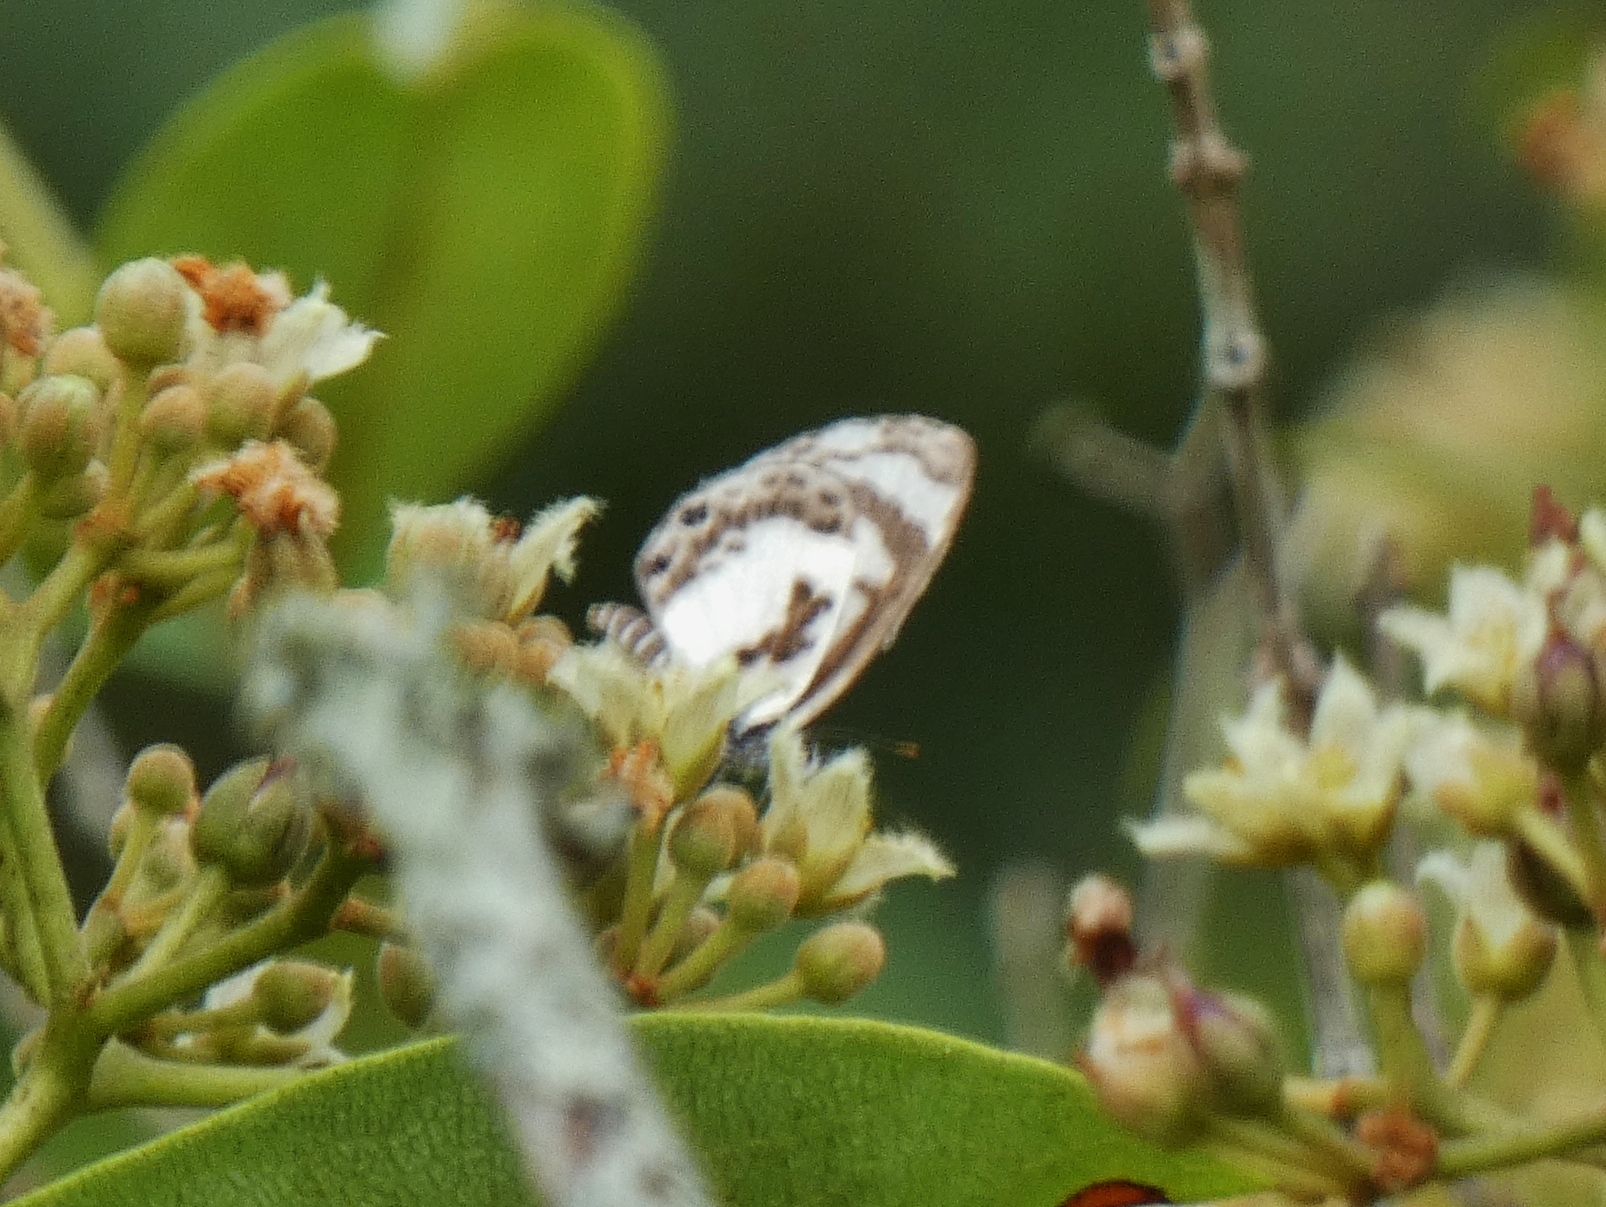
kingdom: Animalia
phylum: Arthropoda
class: Insecta
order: Lepidoptera
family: Lycaenidae
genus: Azanus
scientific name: Azanus isis
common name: White-banded babul blue
